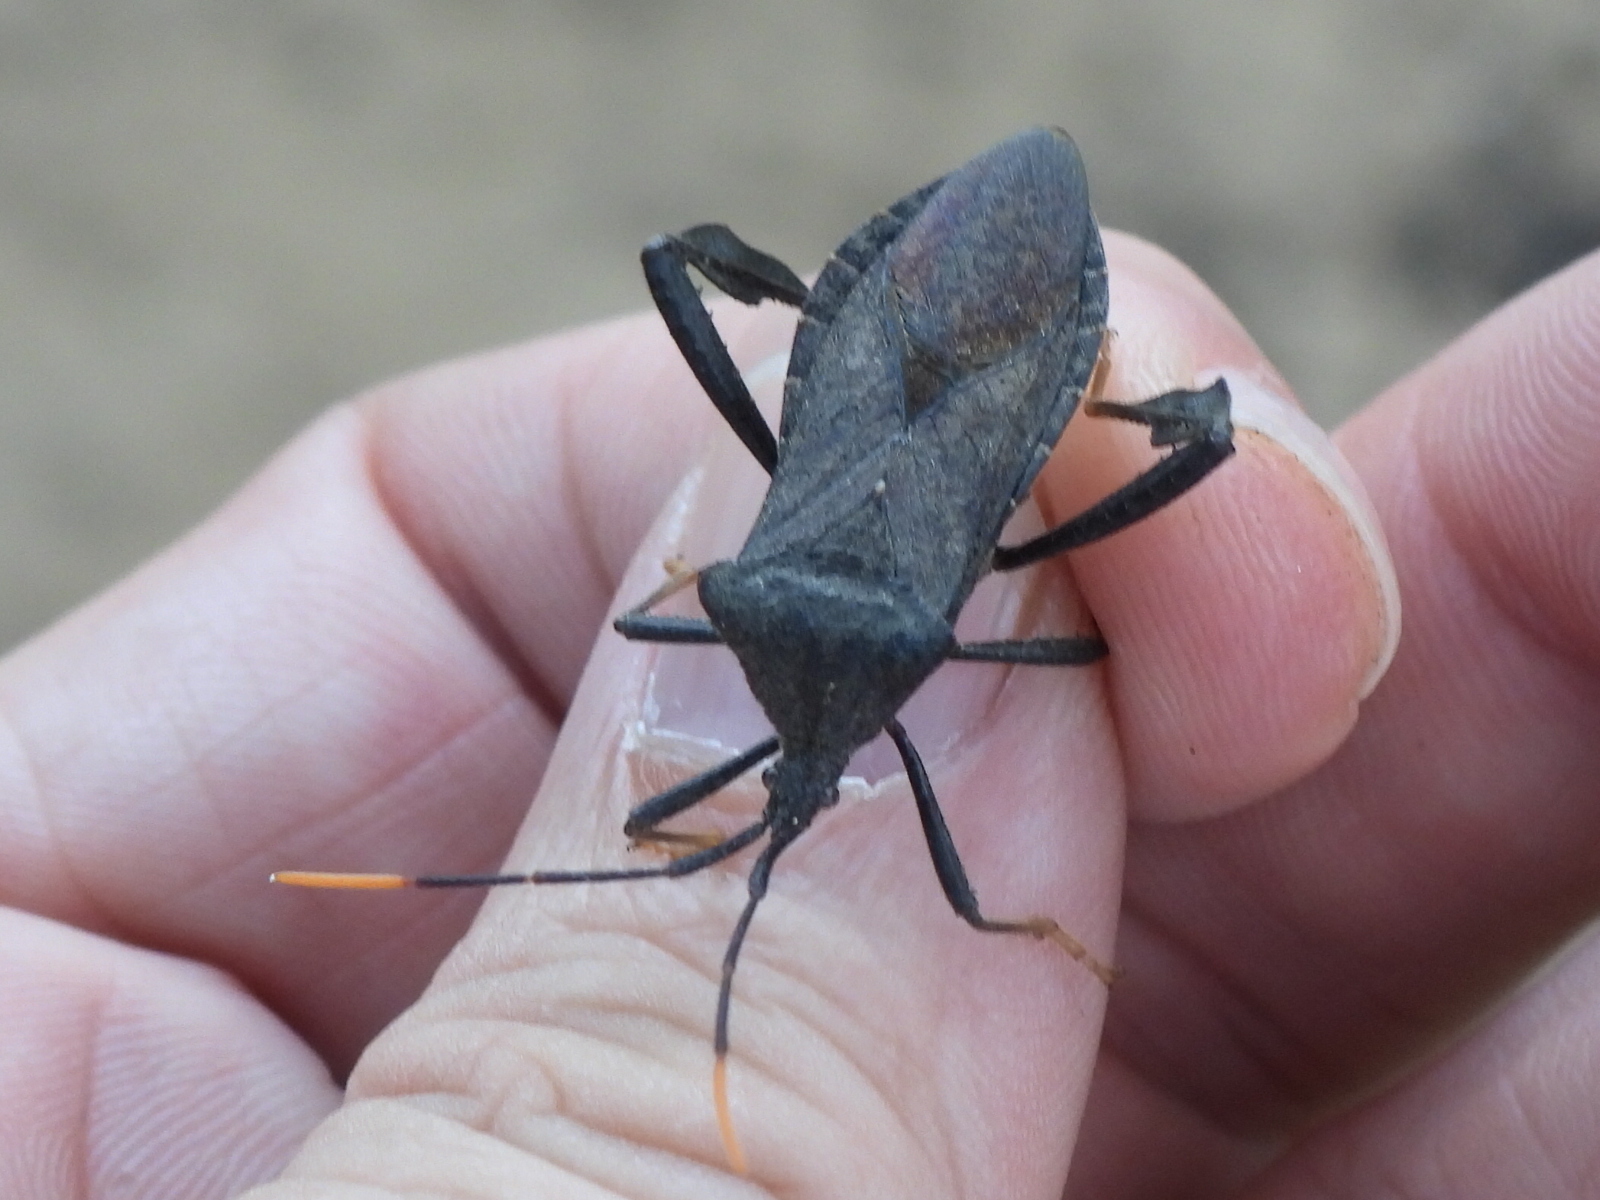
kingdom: Animalia
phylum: Arthropoda
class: Insecta
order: Hemiptera
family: Coreidae
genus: Acanthocephala
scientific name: Acanthocephala terminalis
